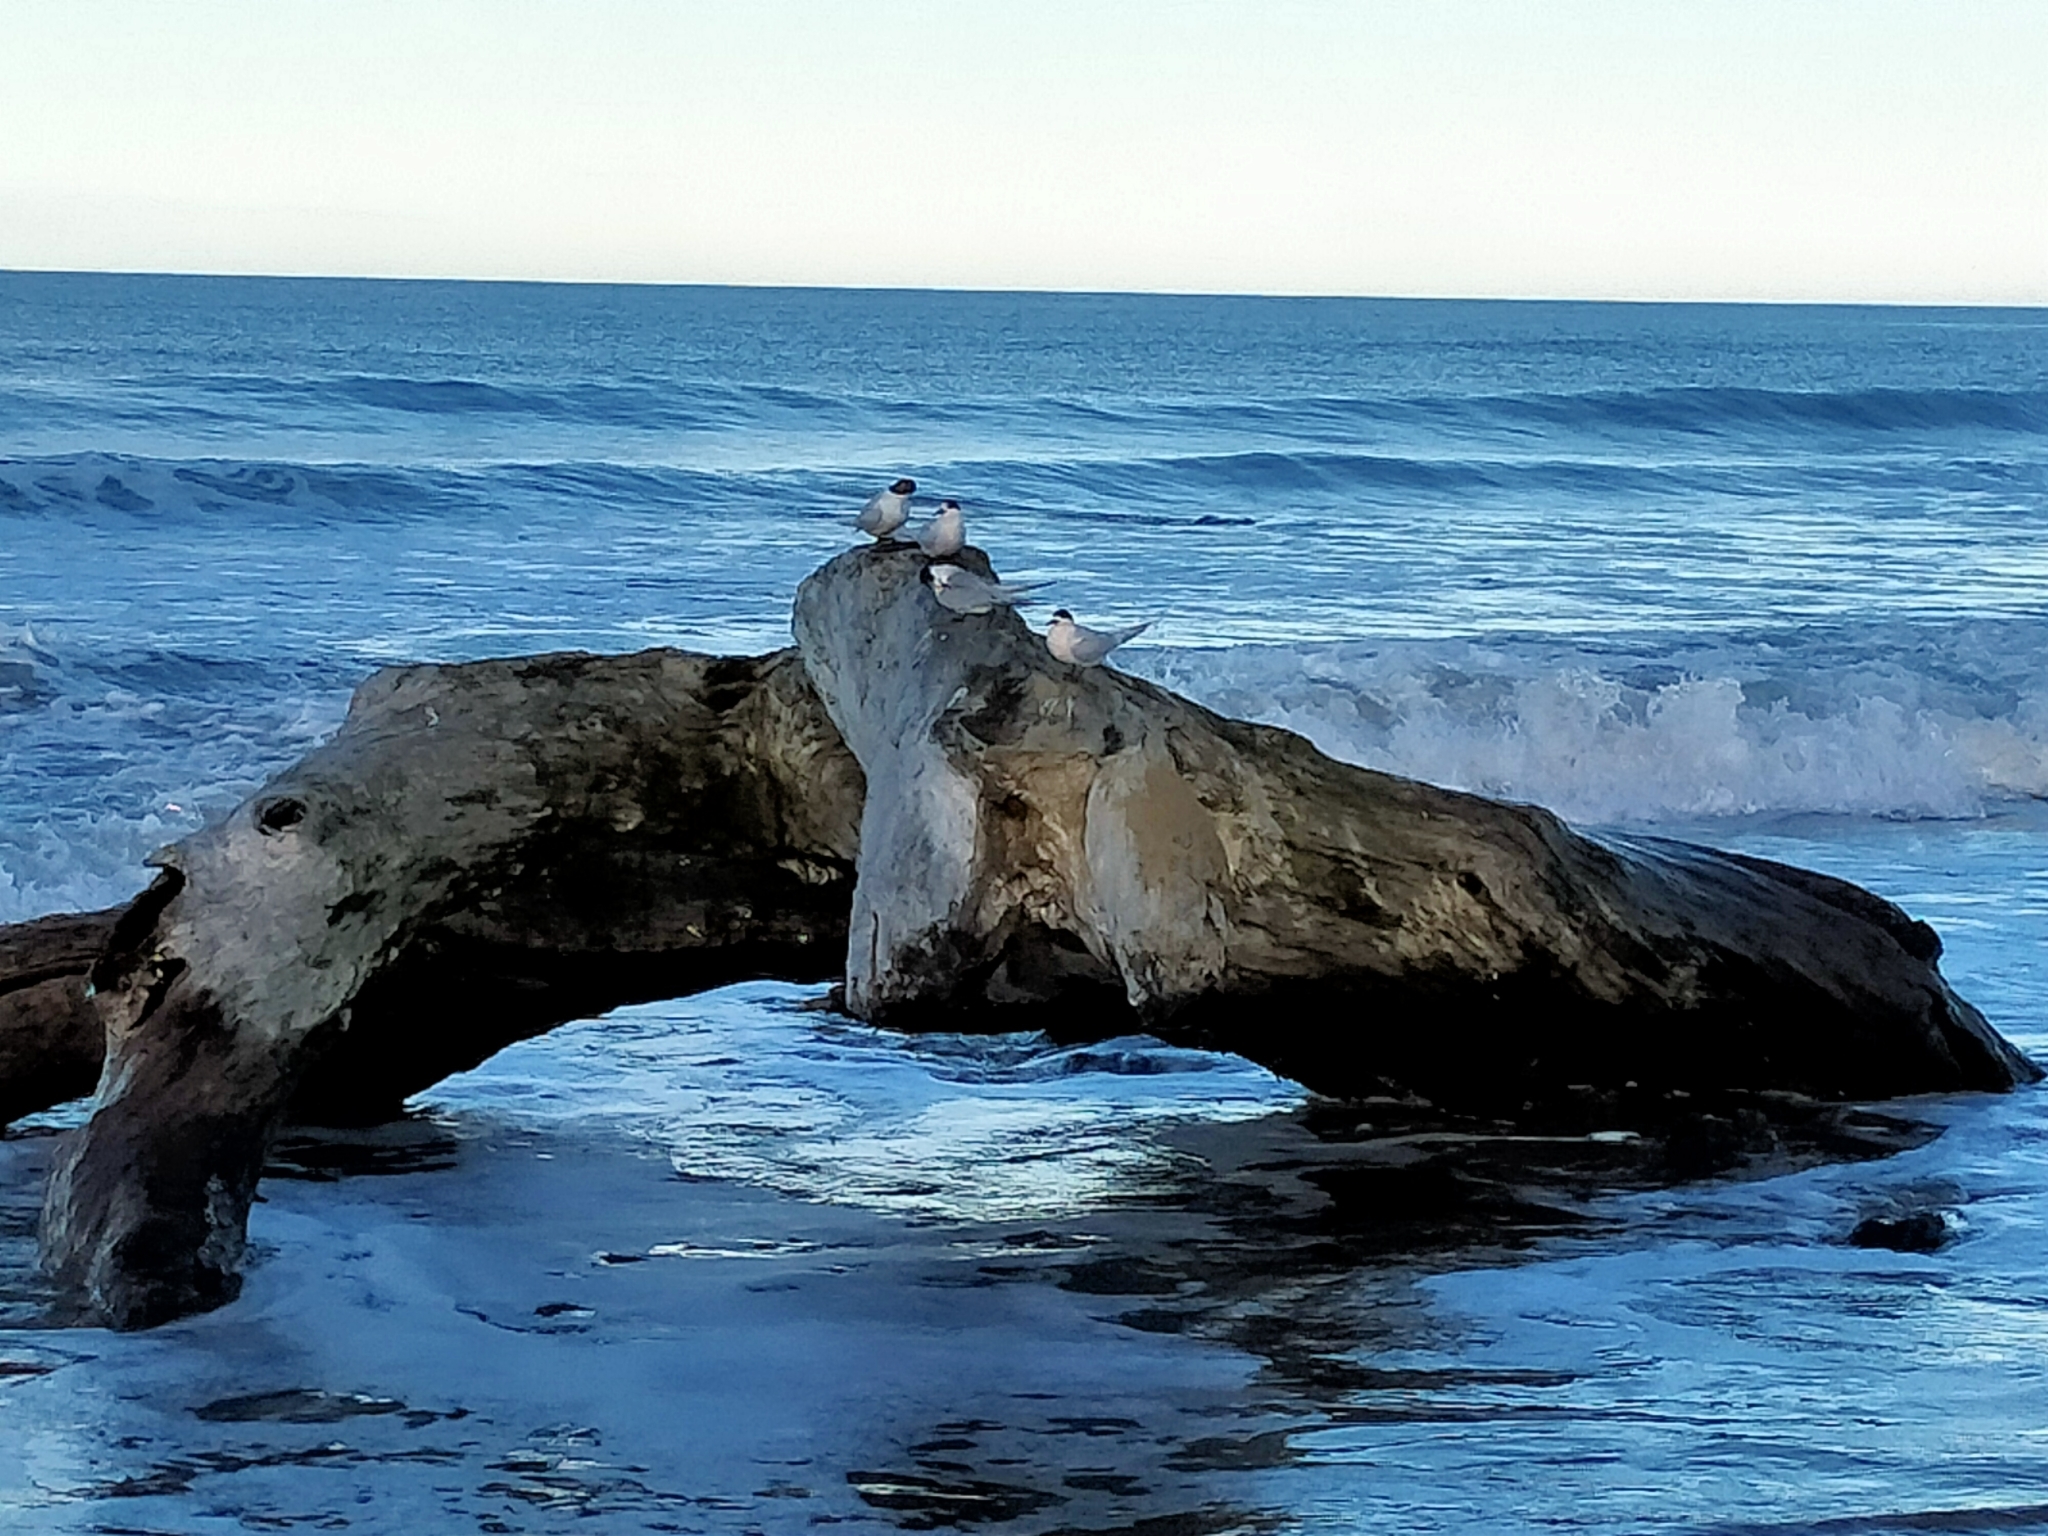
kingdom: Animalia
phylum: Chordata
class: Aves
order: Charadriiformes
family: Laridae
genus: Sterna
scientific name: Sterna striata
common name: White-fronted tern
